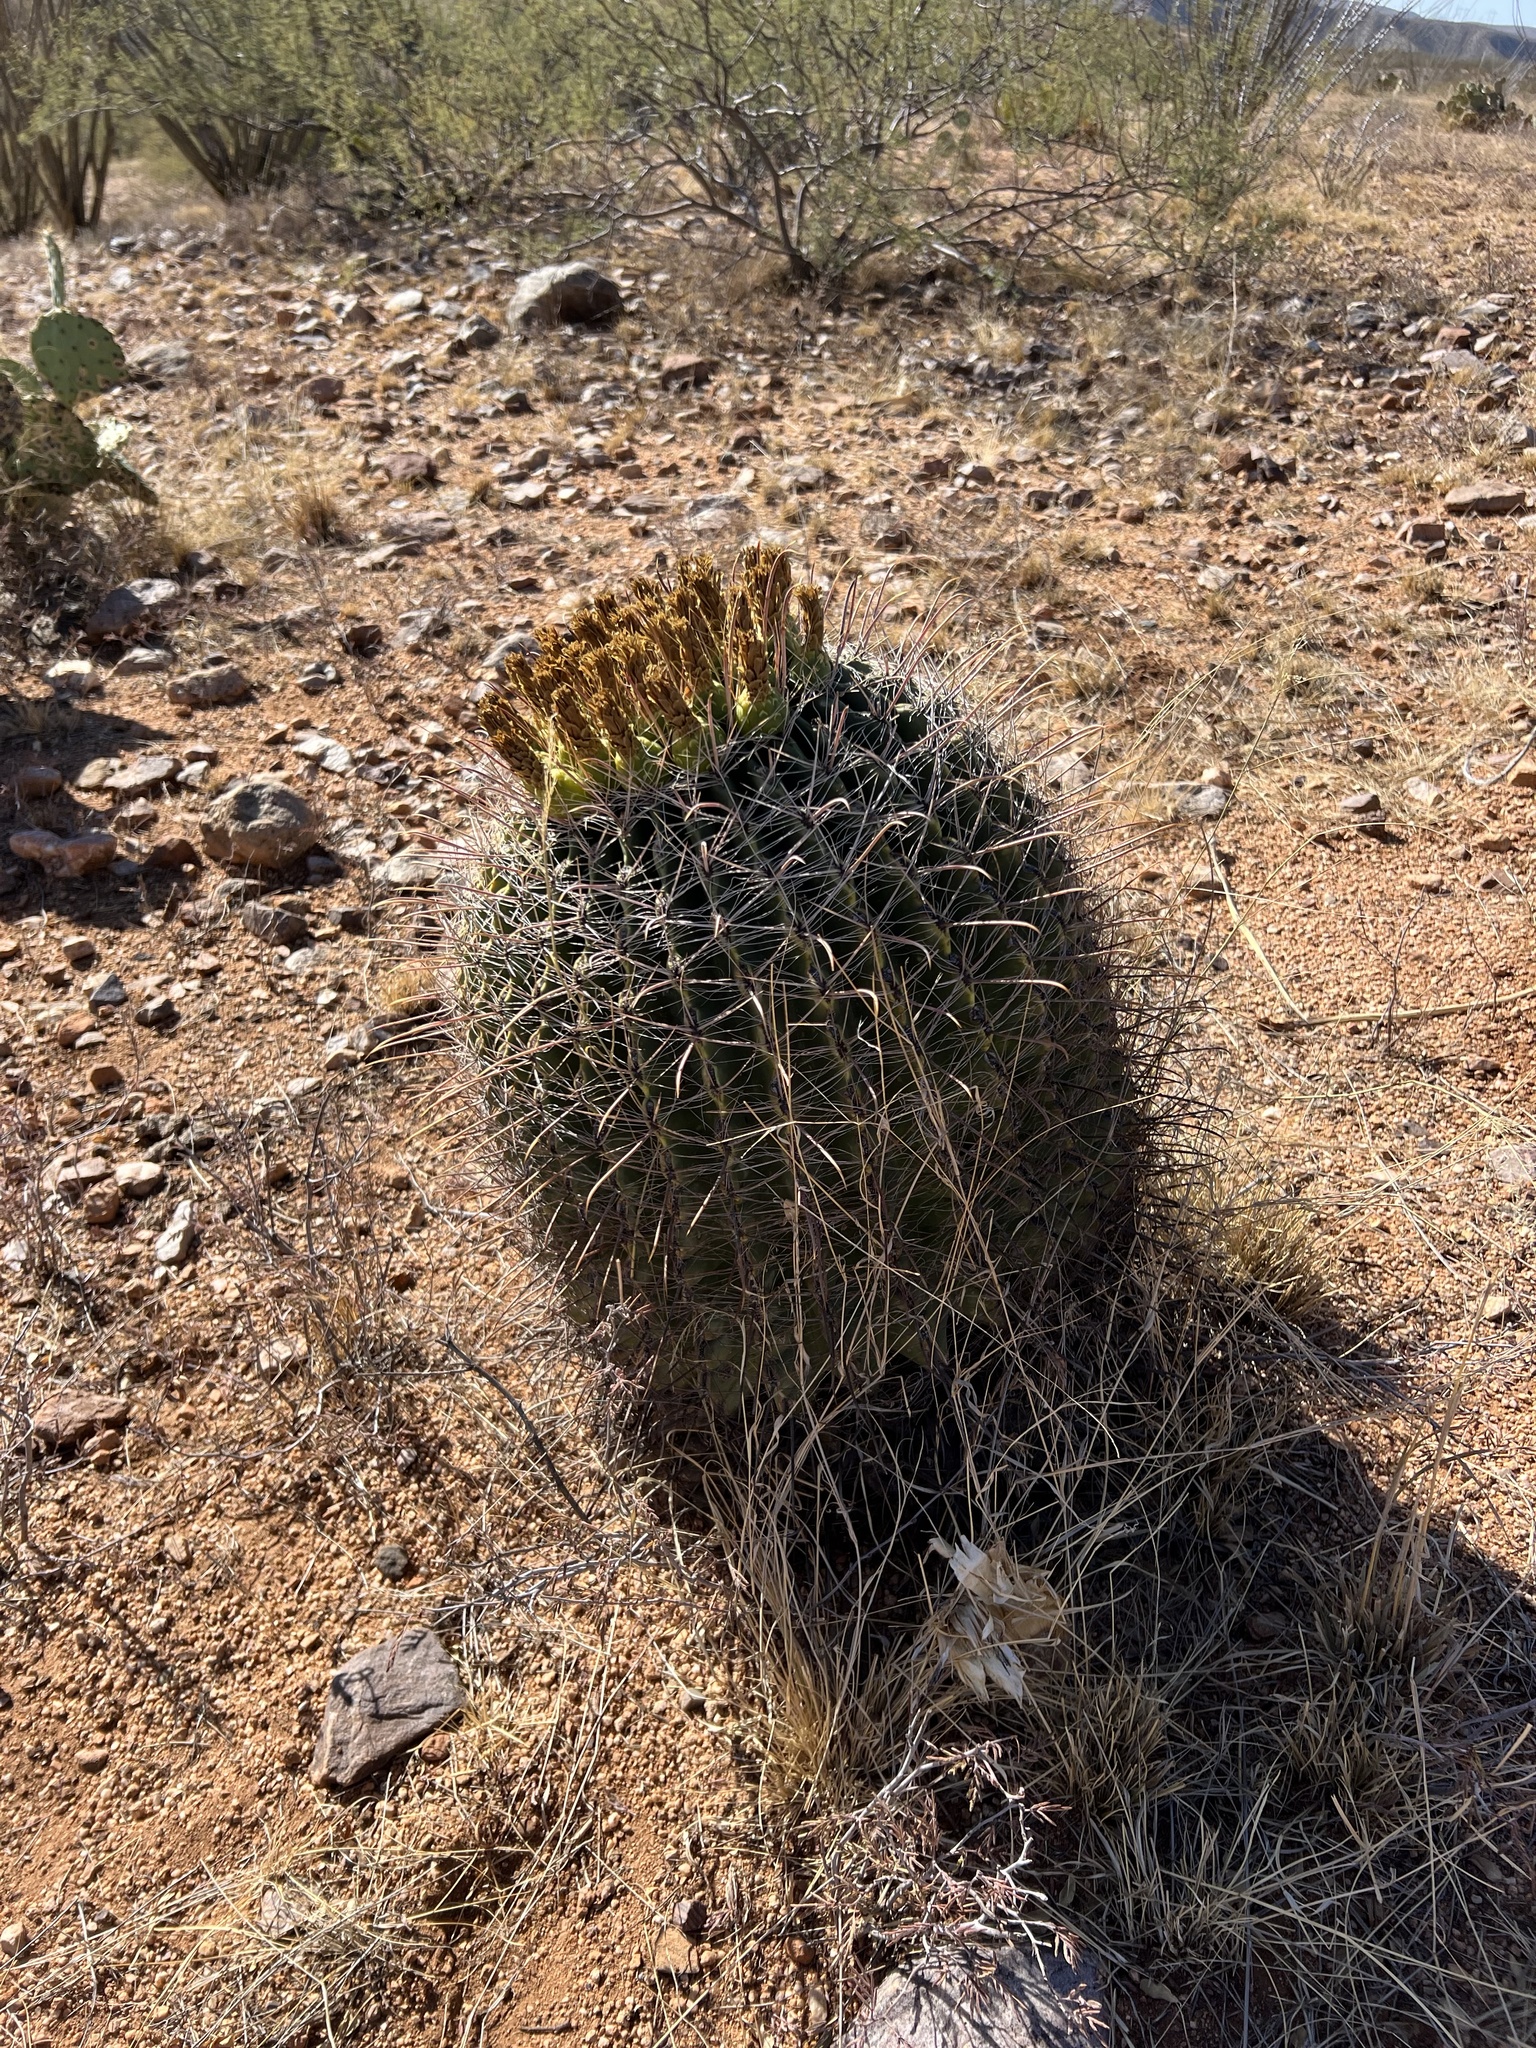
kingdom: Plantae
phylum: Tracheophyta
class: Magnoliopsida
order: Caryophyllales
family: Cactaceae
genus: Ferocactus
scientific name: Ferocactus wislizeni
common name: Candy barrel cactus
